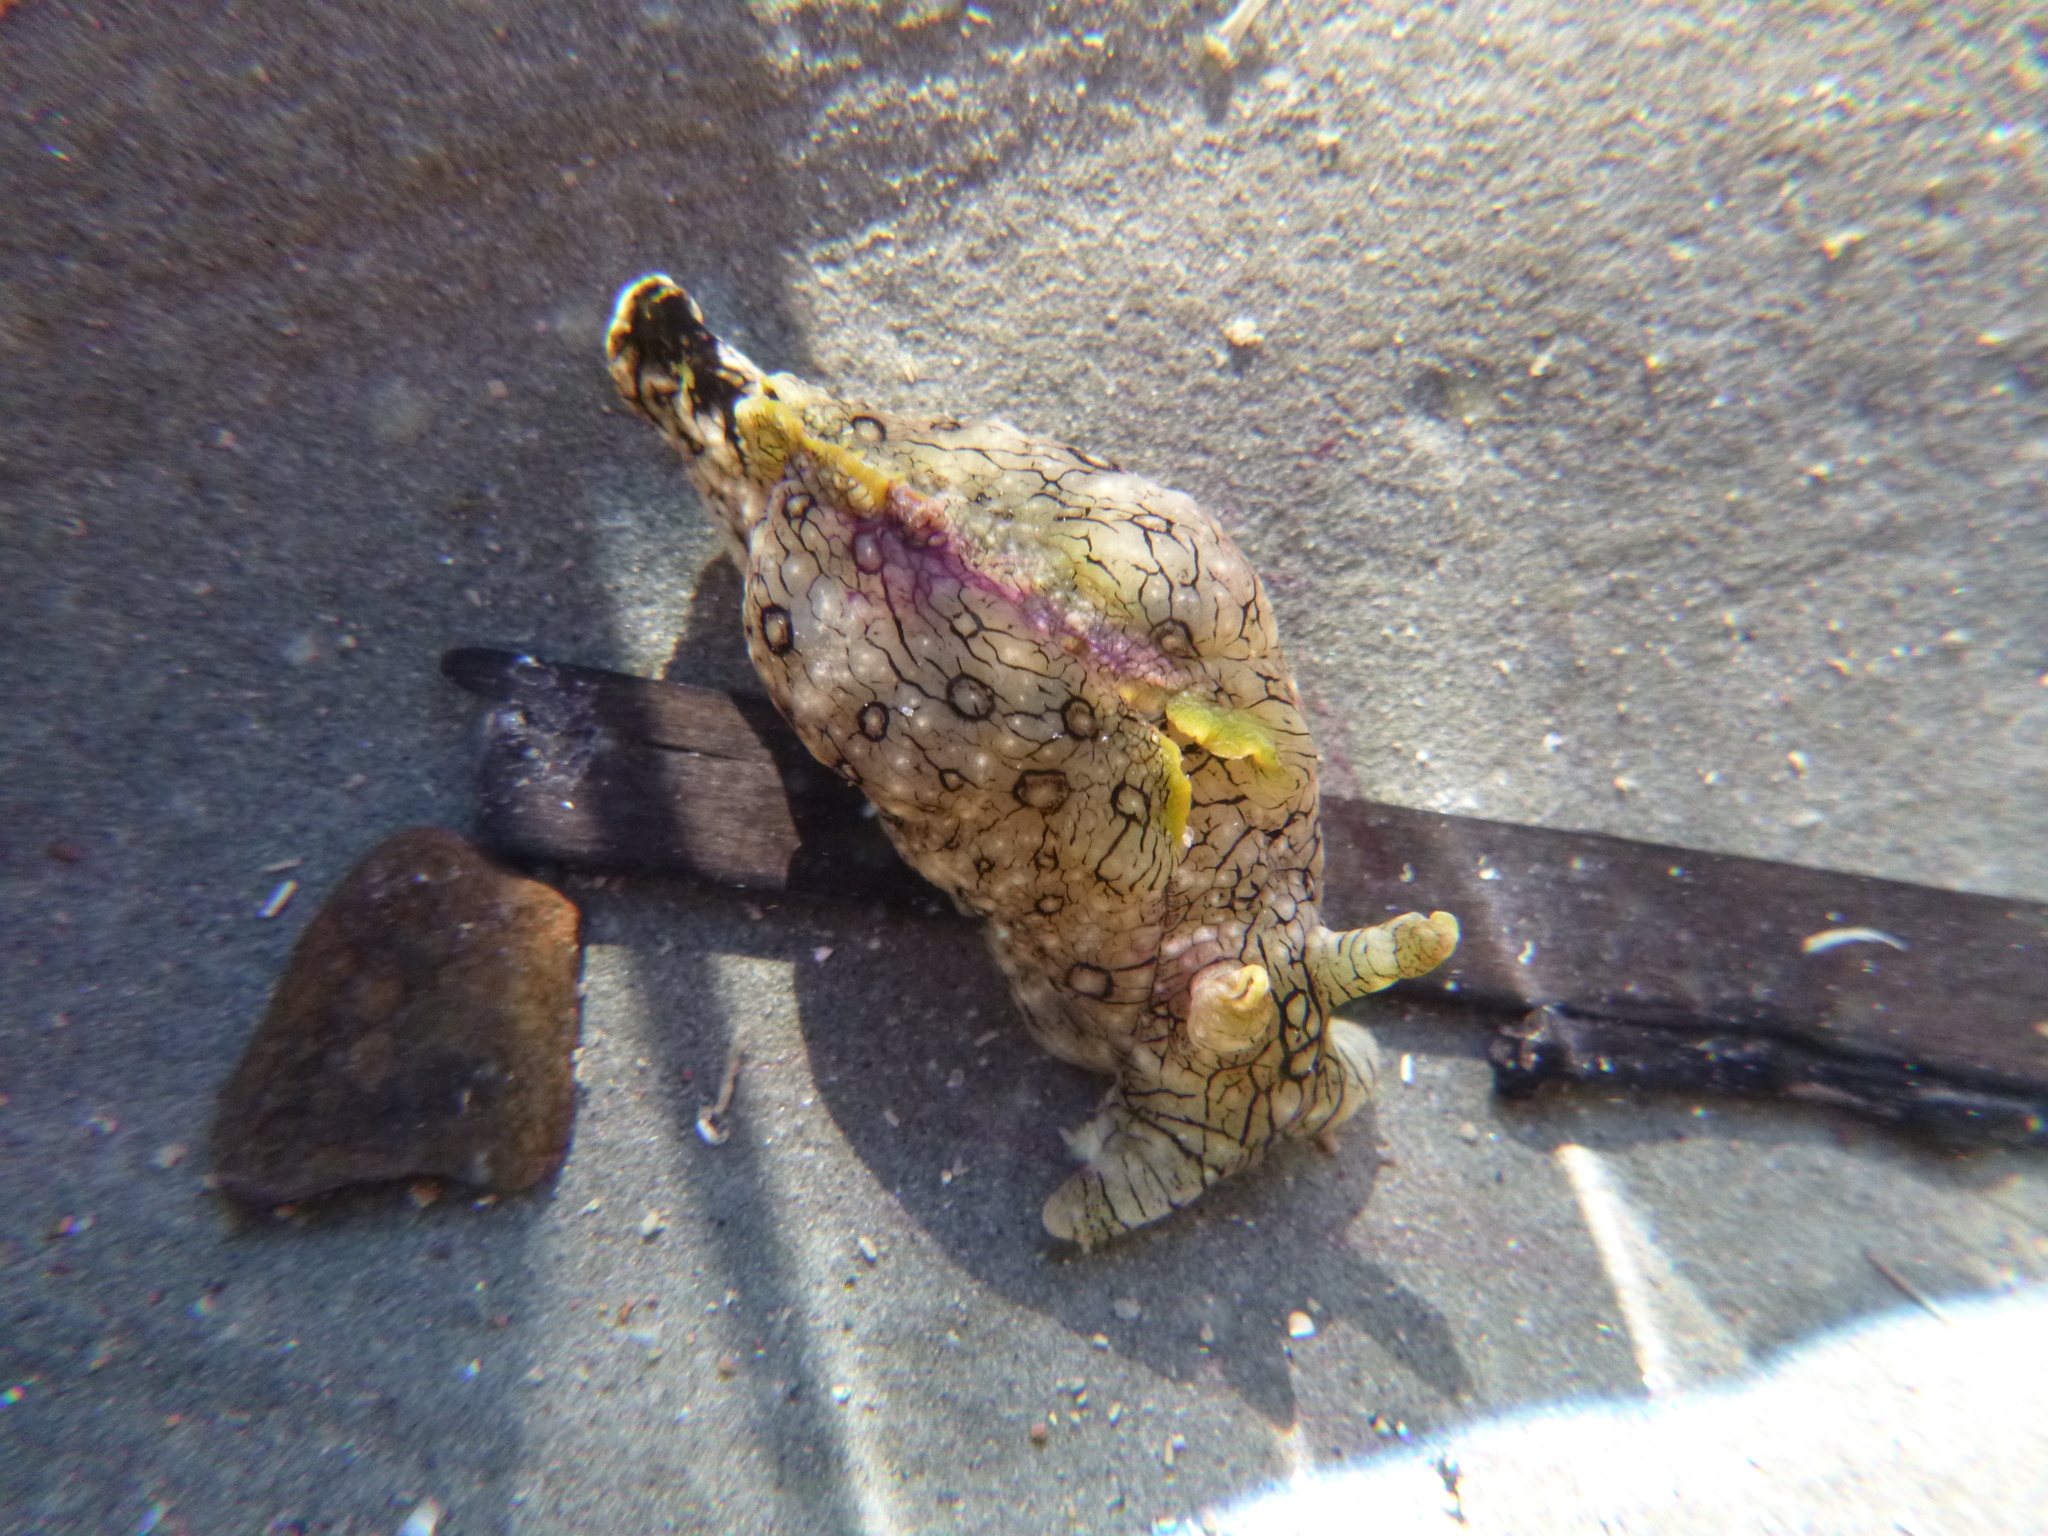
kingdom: Animalia
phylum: Mollusca
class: Gastropoda
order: Aplysiida
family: Aplysiidae
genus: Aplysia
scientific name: Aplysia argus
